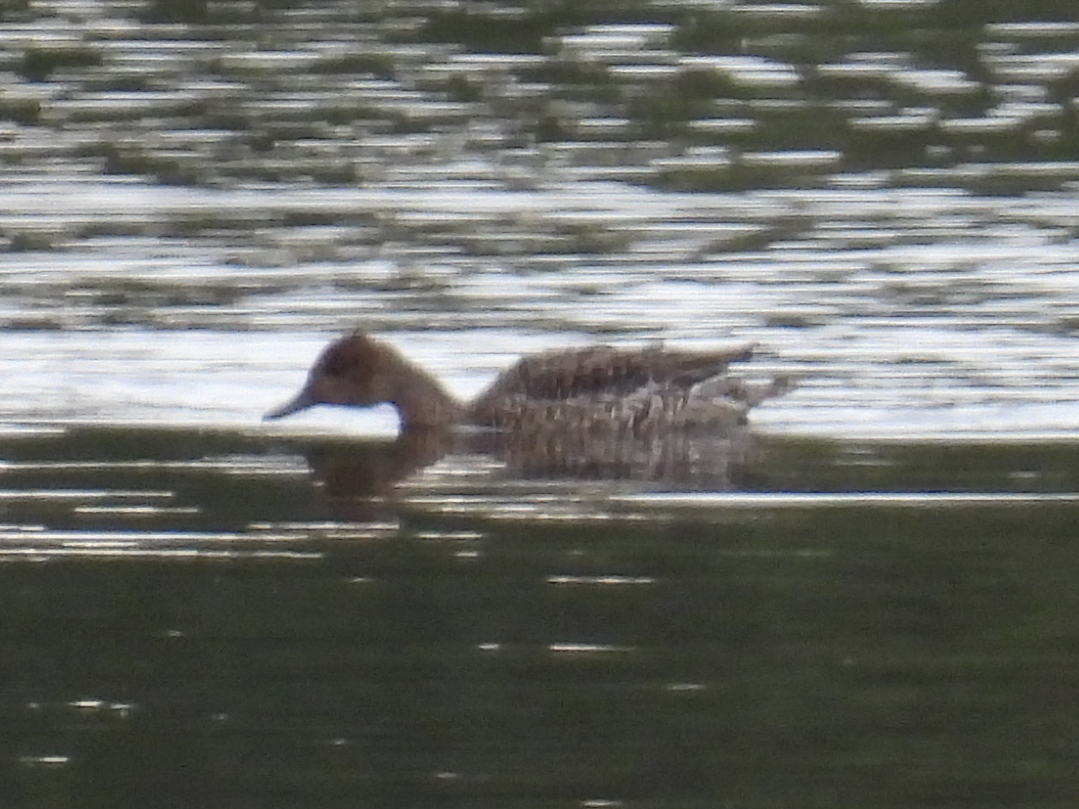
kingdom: Animalia
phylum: Chordata
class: Aves
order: Anseriformes
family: Anatidae
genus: Anas
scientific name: Anas acuta
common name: Northern pintail
